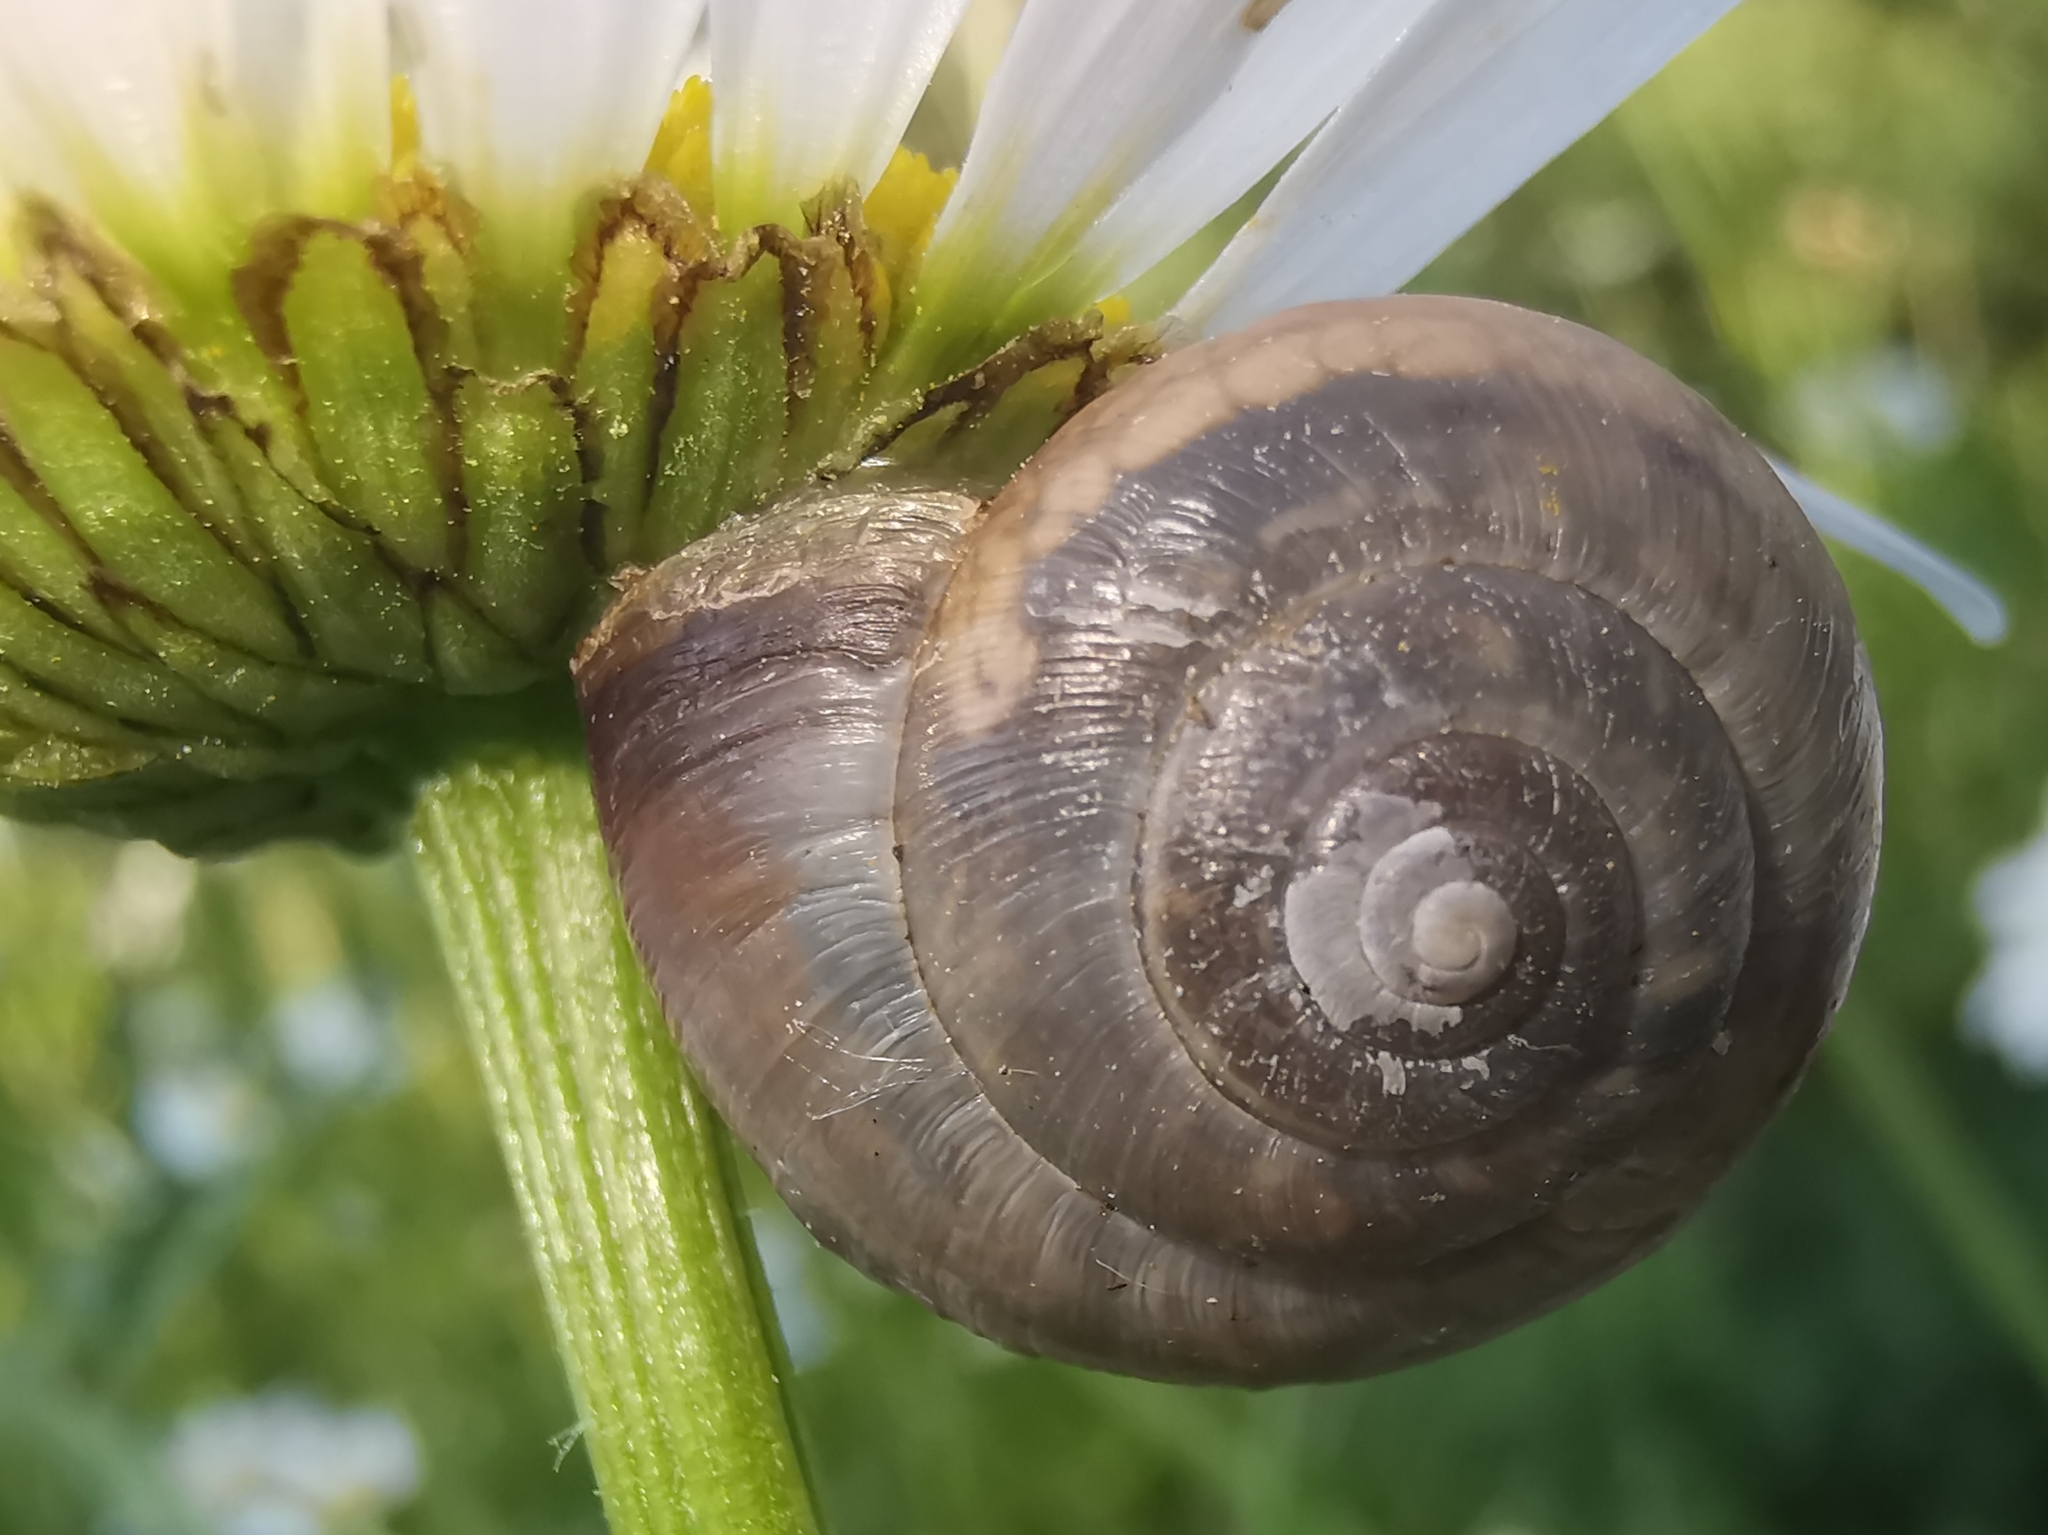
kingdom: Animalia
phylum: Mollusca
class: Gastropoda
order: Stylommatophora
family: Hygromiidae
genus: Monacha
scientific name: Monacha cantiana
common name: Kentish snail
